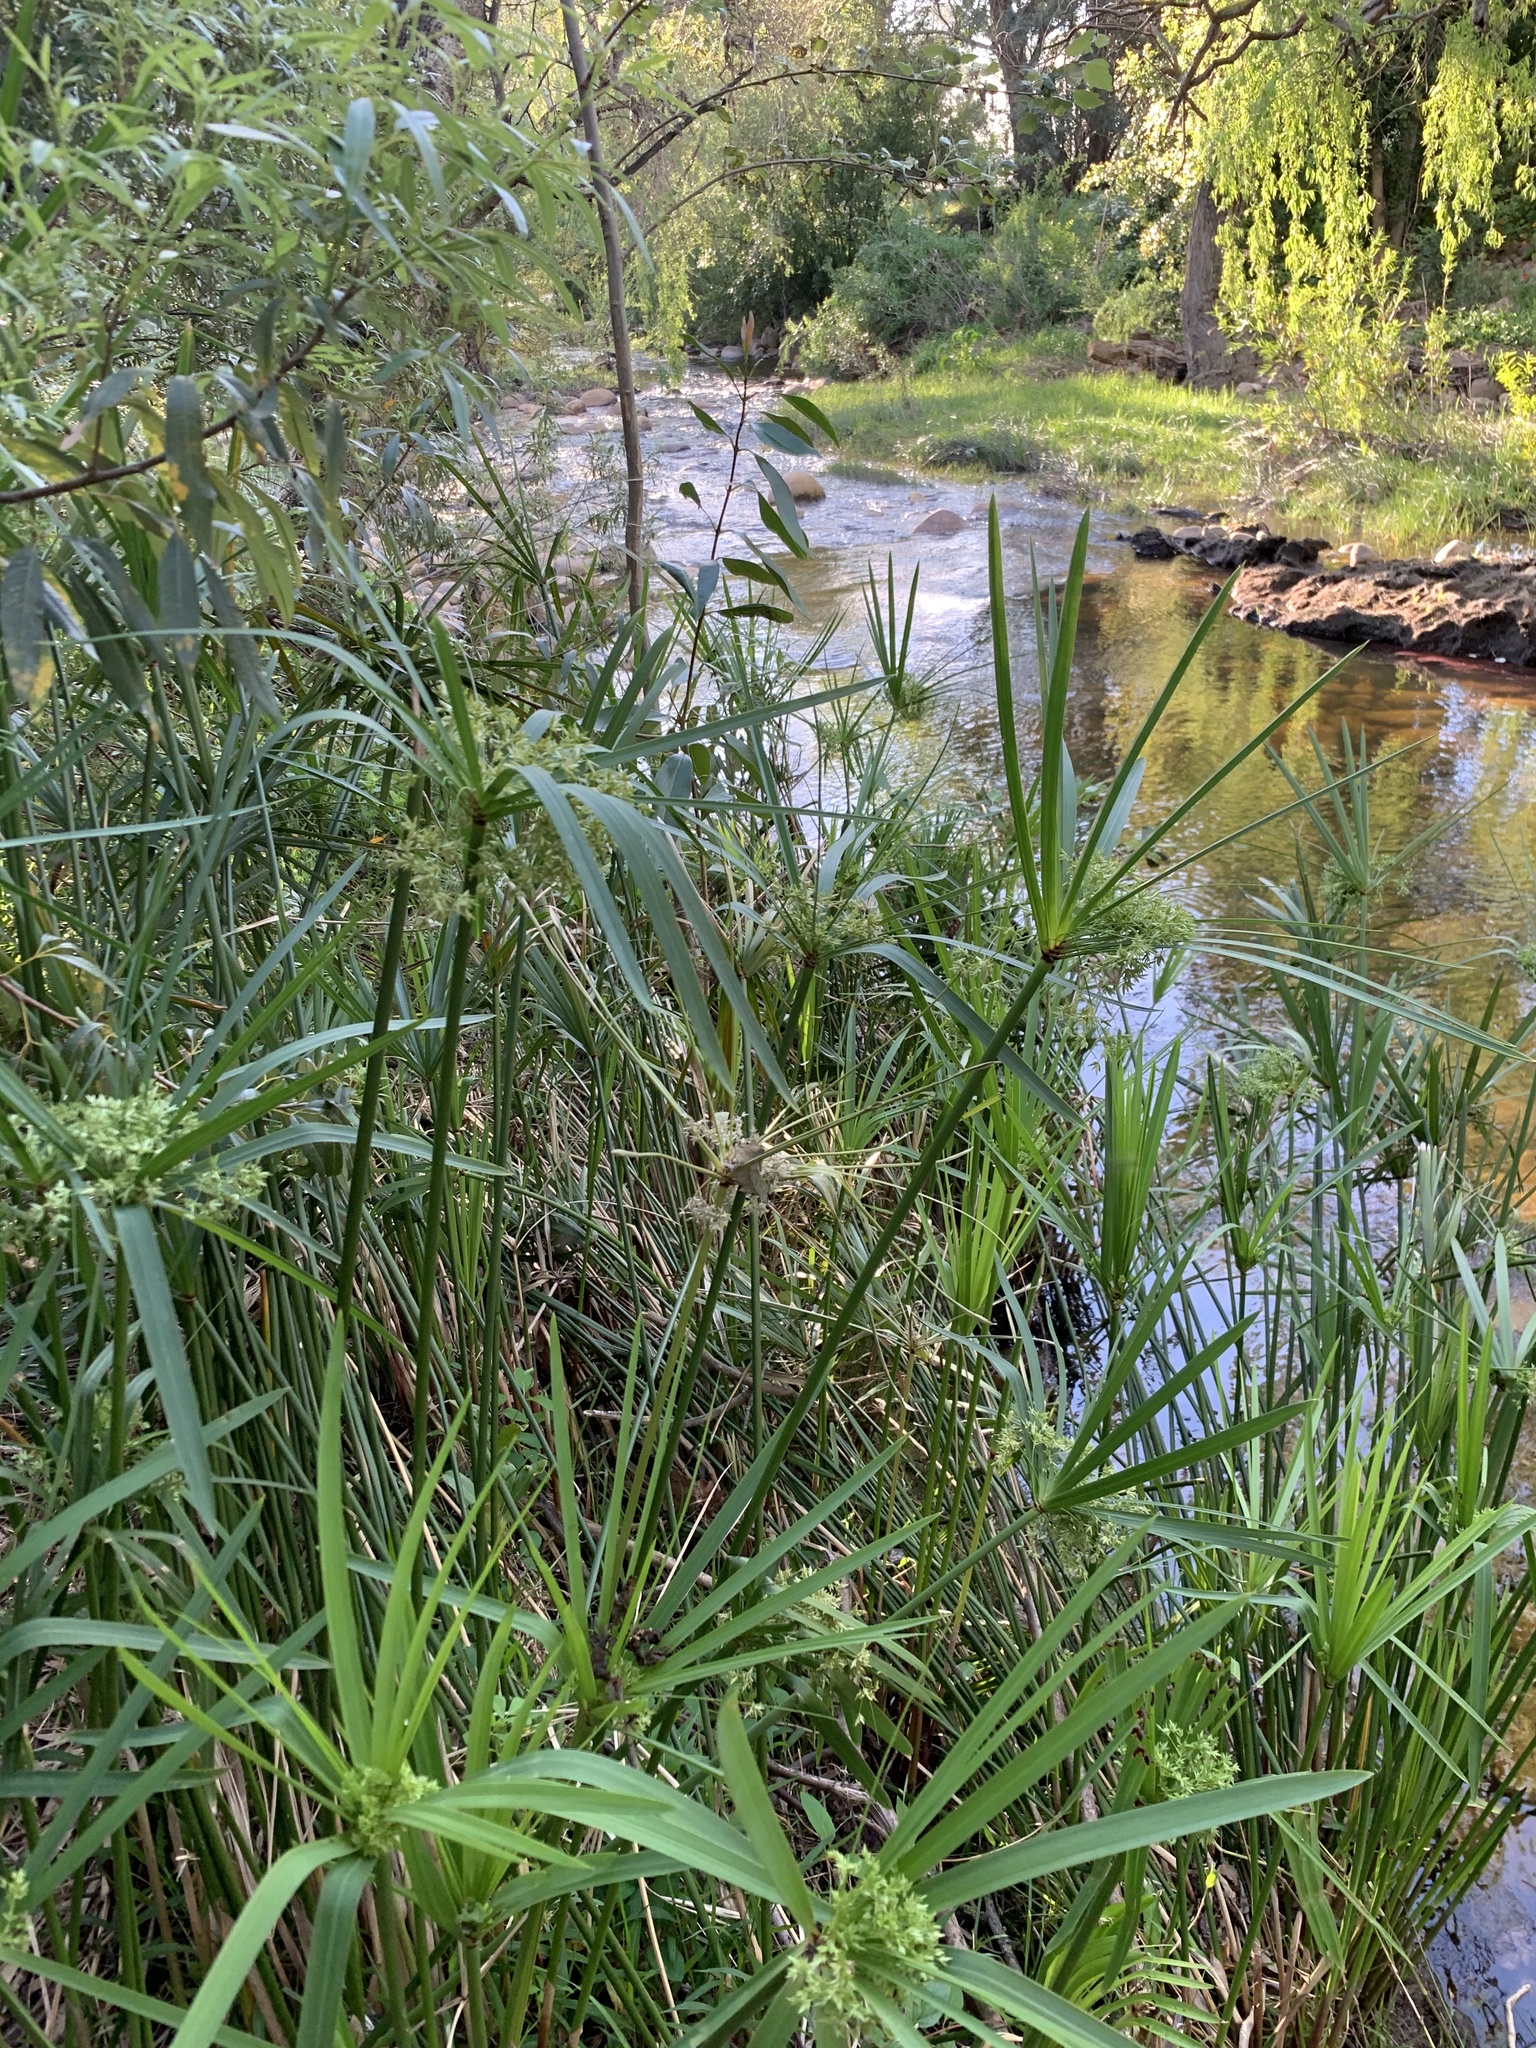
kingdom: Plantae
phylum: Tracheophyta
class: Liliopsida
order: Poales
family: Cyperaceae
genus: Cyperus
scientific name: Cyperus textilis
